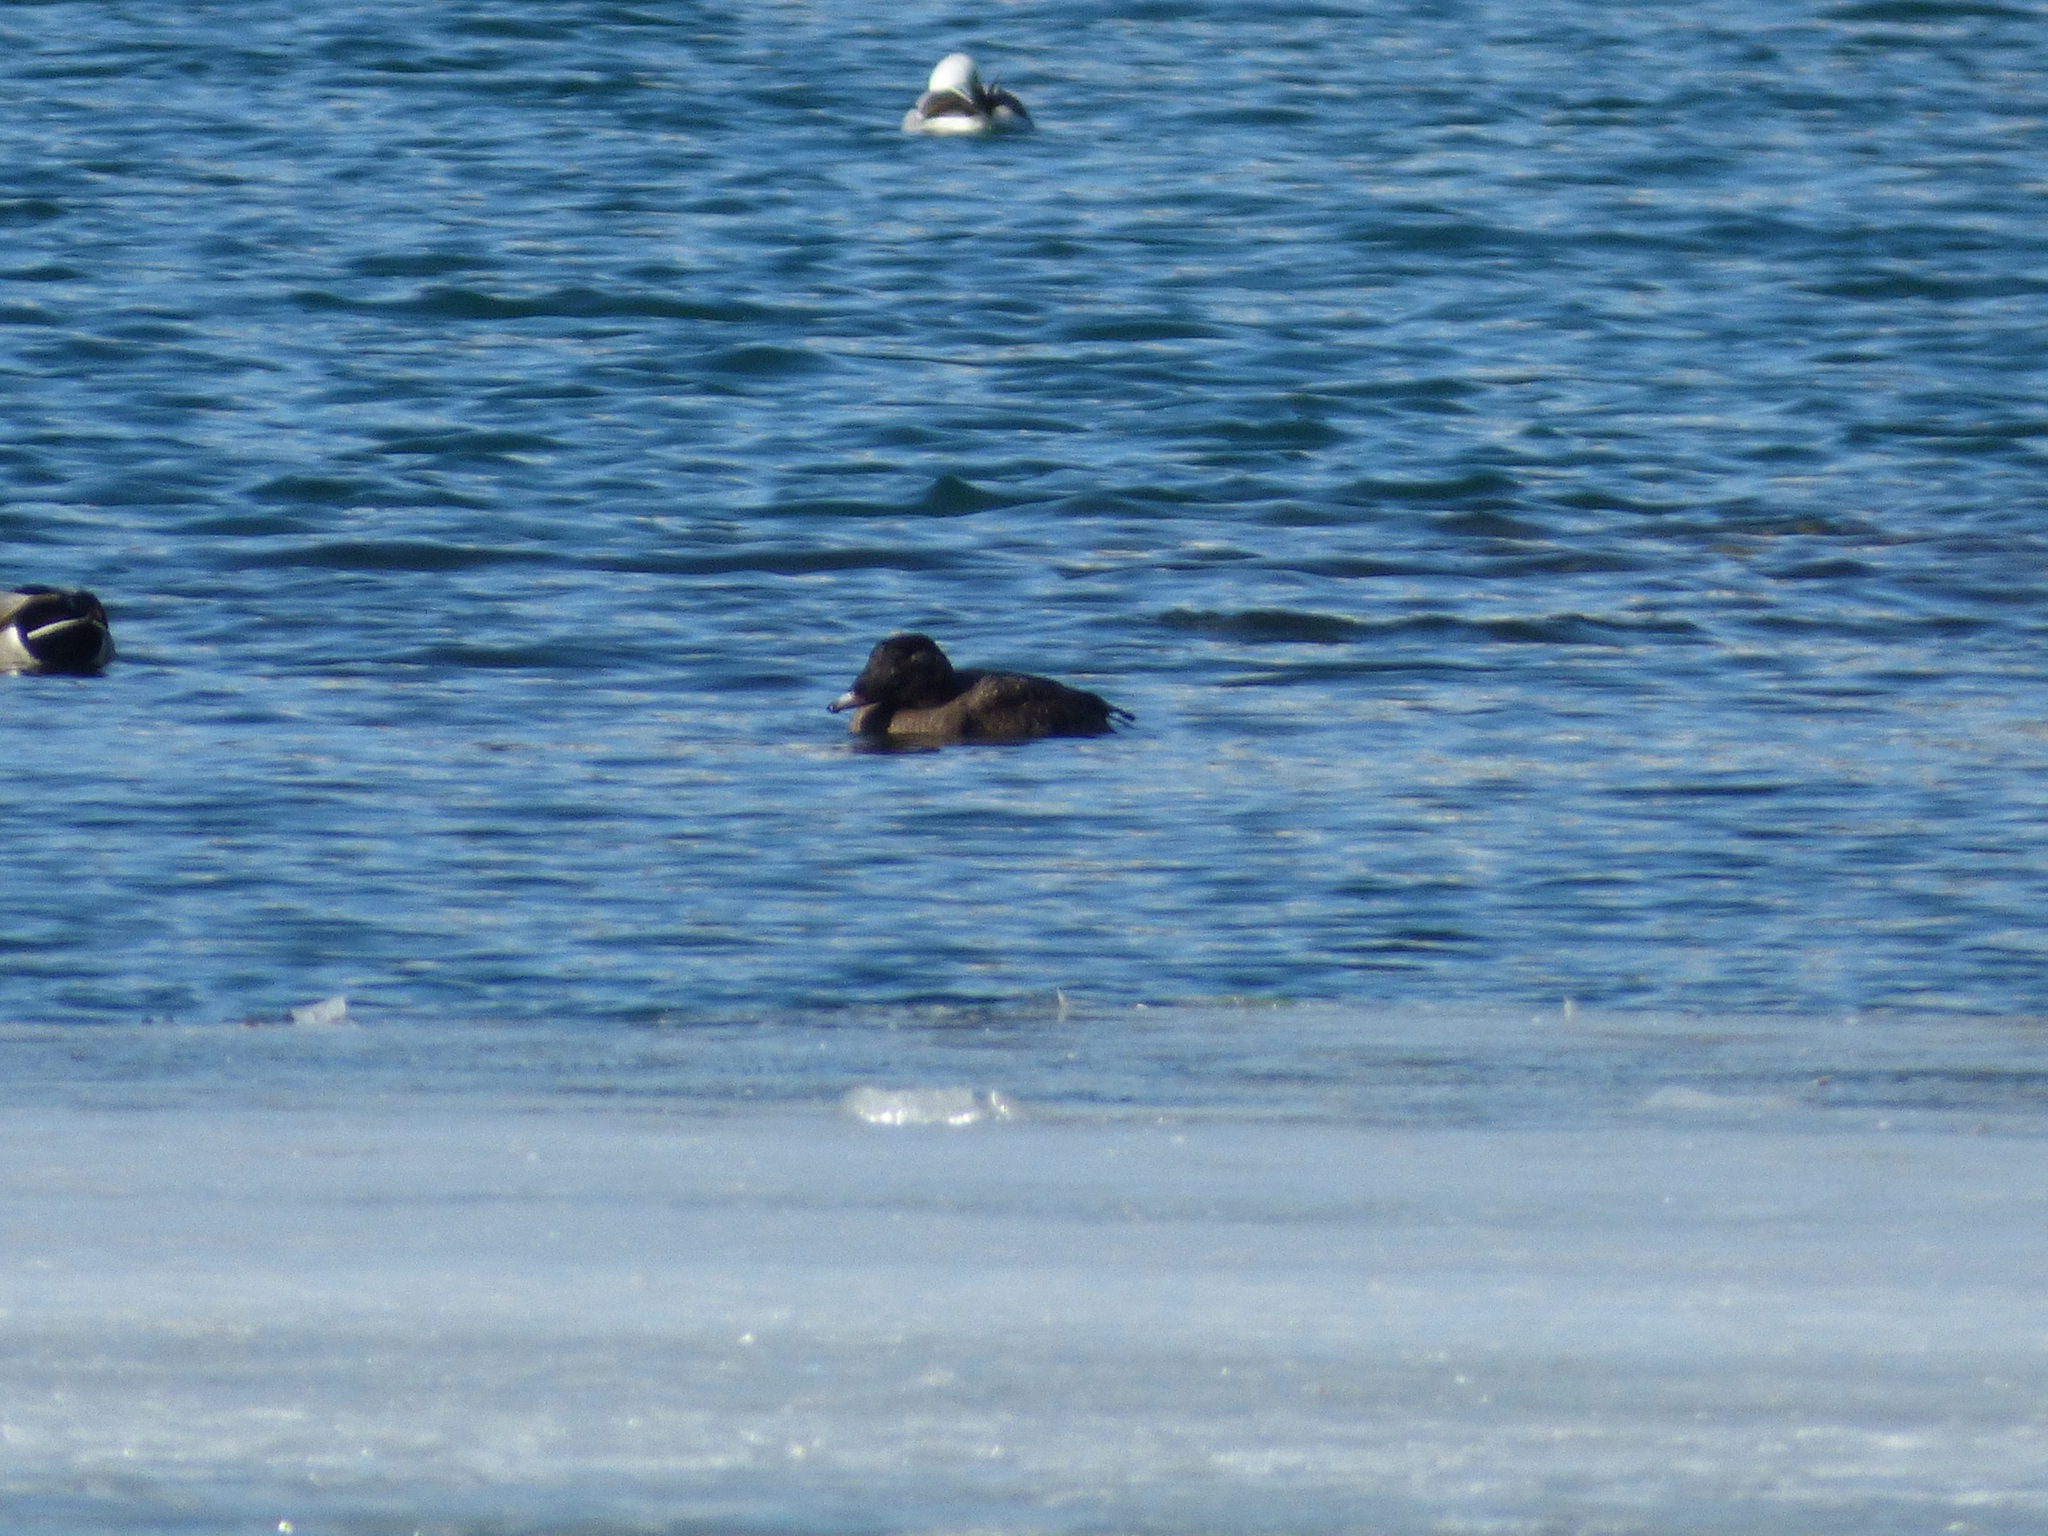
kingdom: Animalia
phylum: Chordata
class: Aves
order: Anseriformes
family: Anatidae
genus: Melanitta
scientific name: Melanitta deglandi
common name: White-winged scoter
